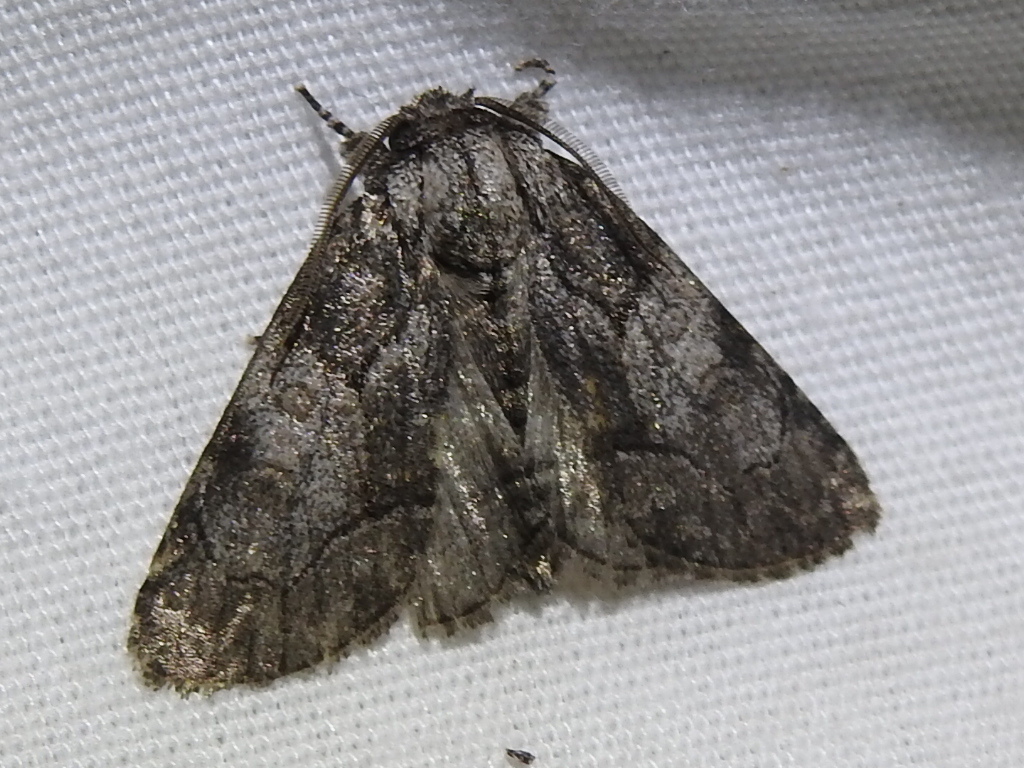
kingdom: Animalia
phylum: Arthropoda
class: Insecta
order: Lepidoptera
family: Noctuidae
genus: Raphia
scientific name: Raphia frater
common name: Brother
